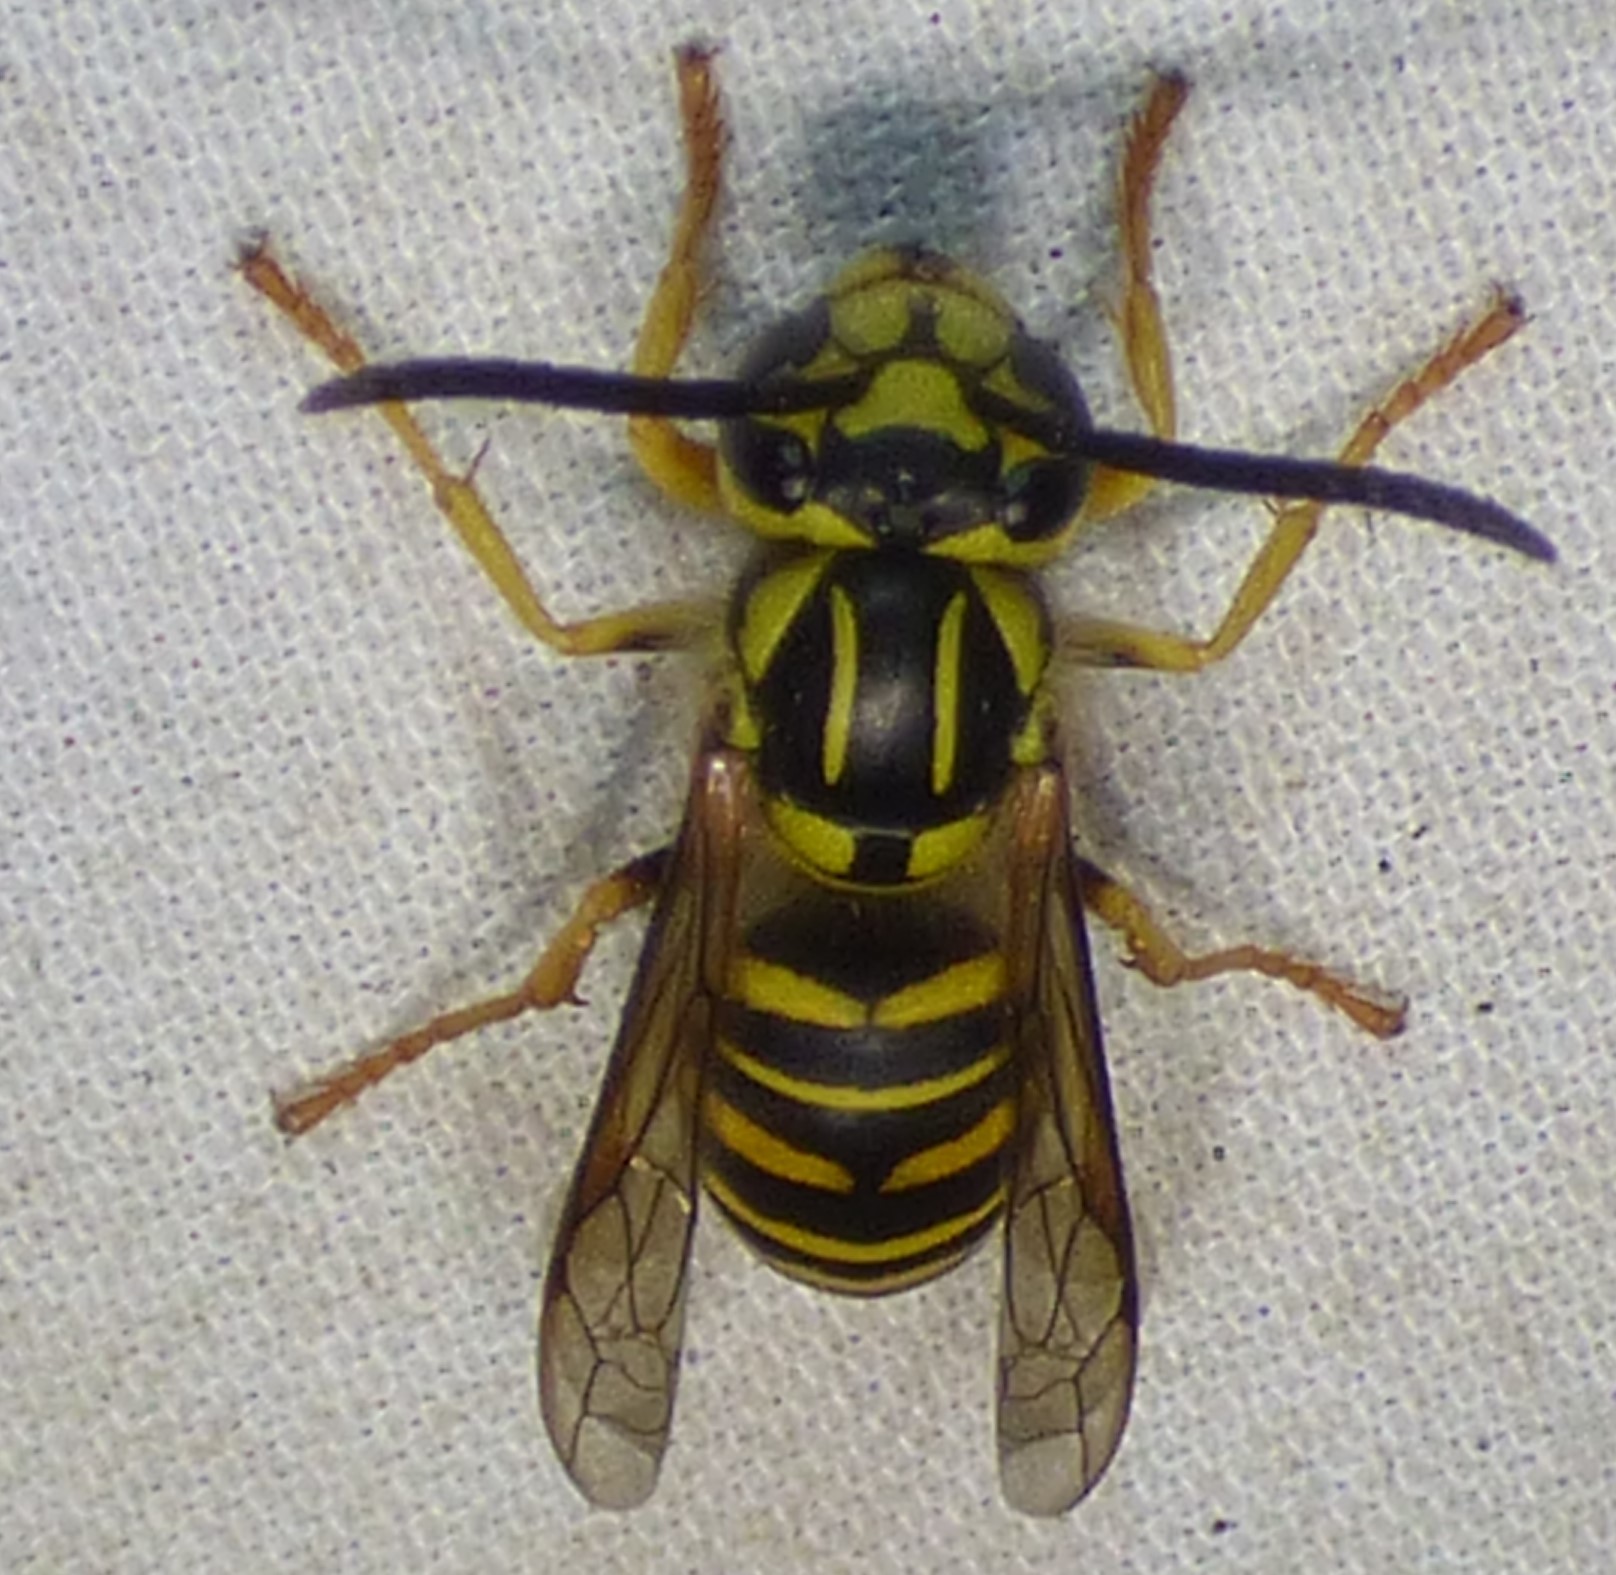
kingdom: Animalia
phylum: Arthropoda
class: Insecta
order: Hymenoptera
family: Vespidae
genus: Vespula
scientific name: Vespula squamosa
